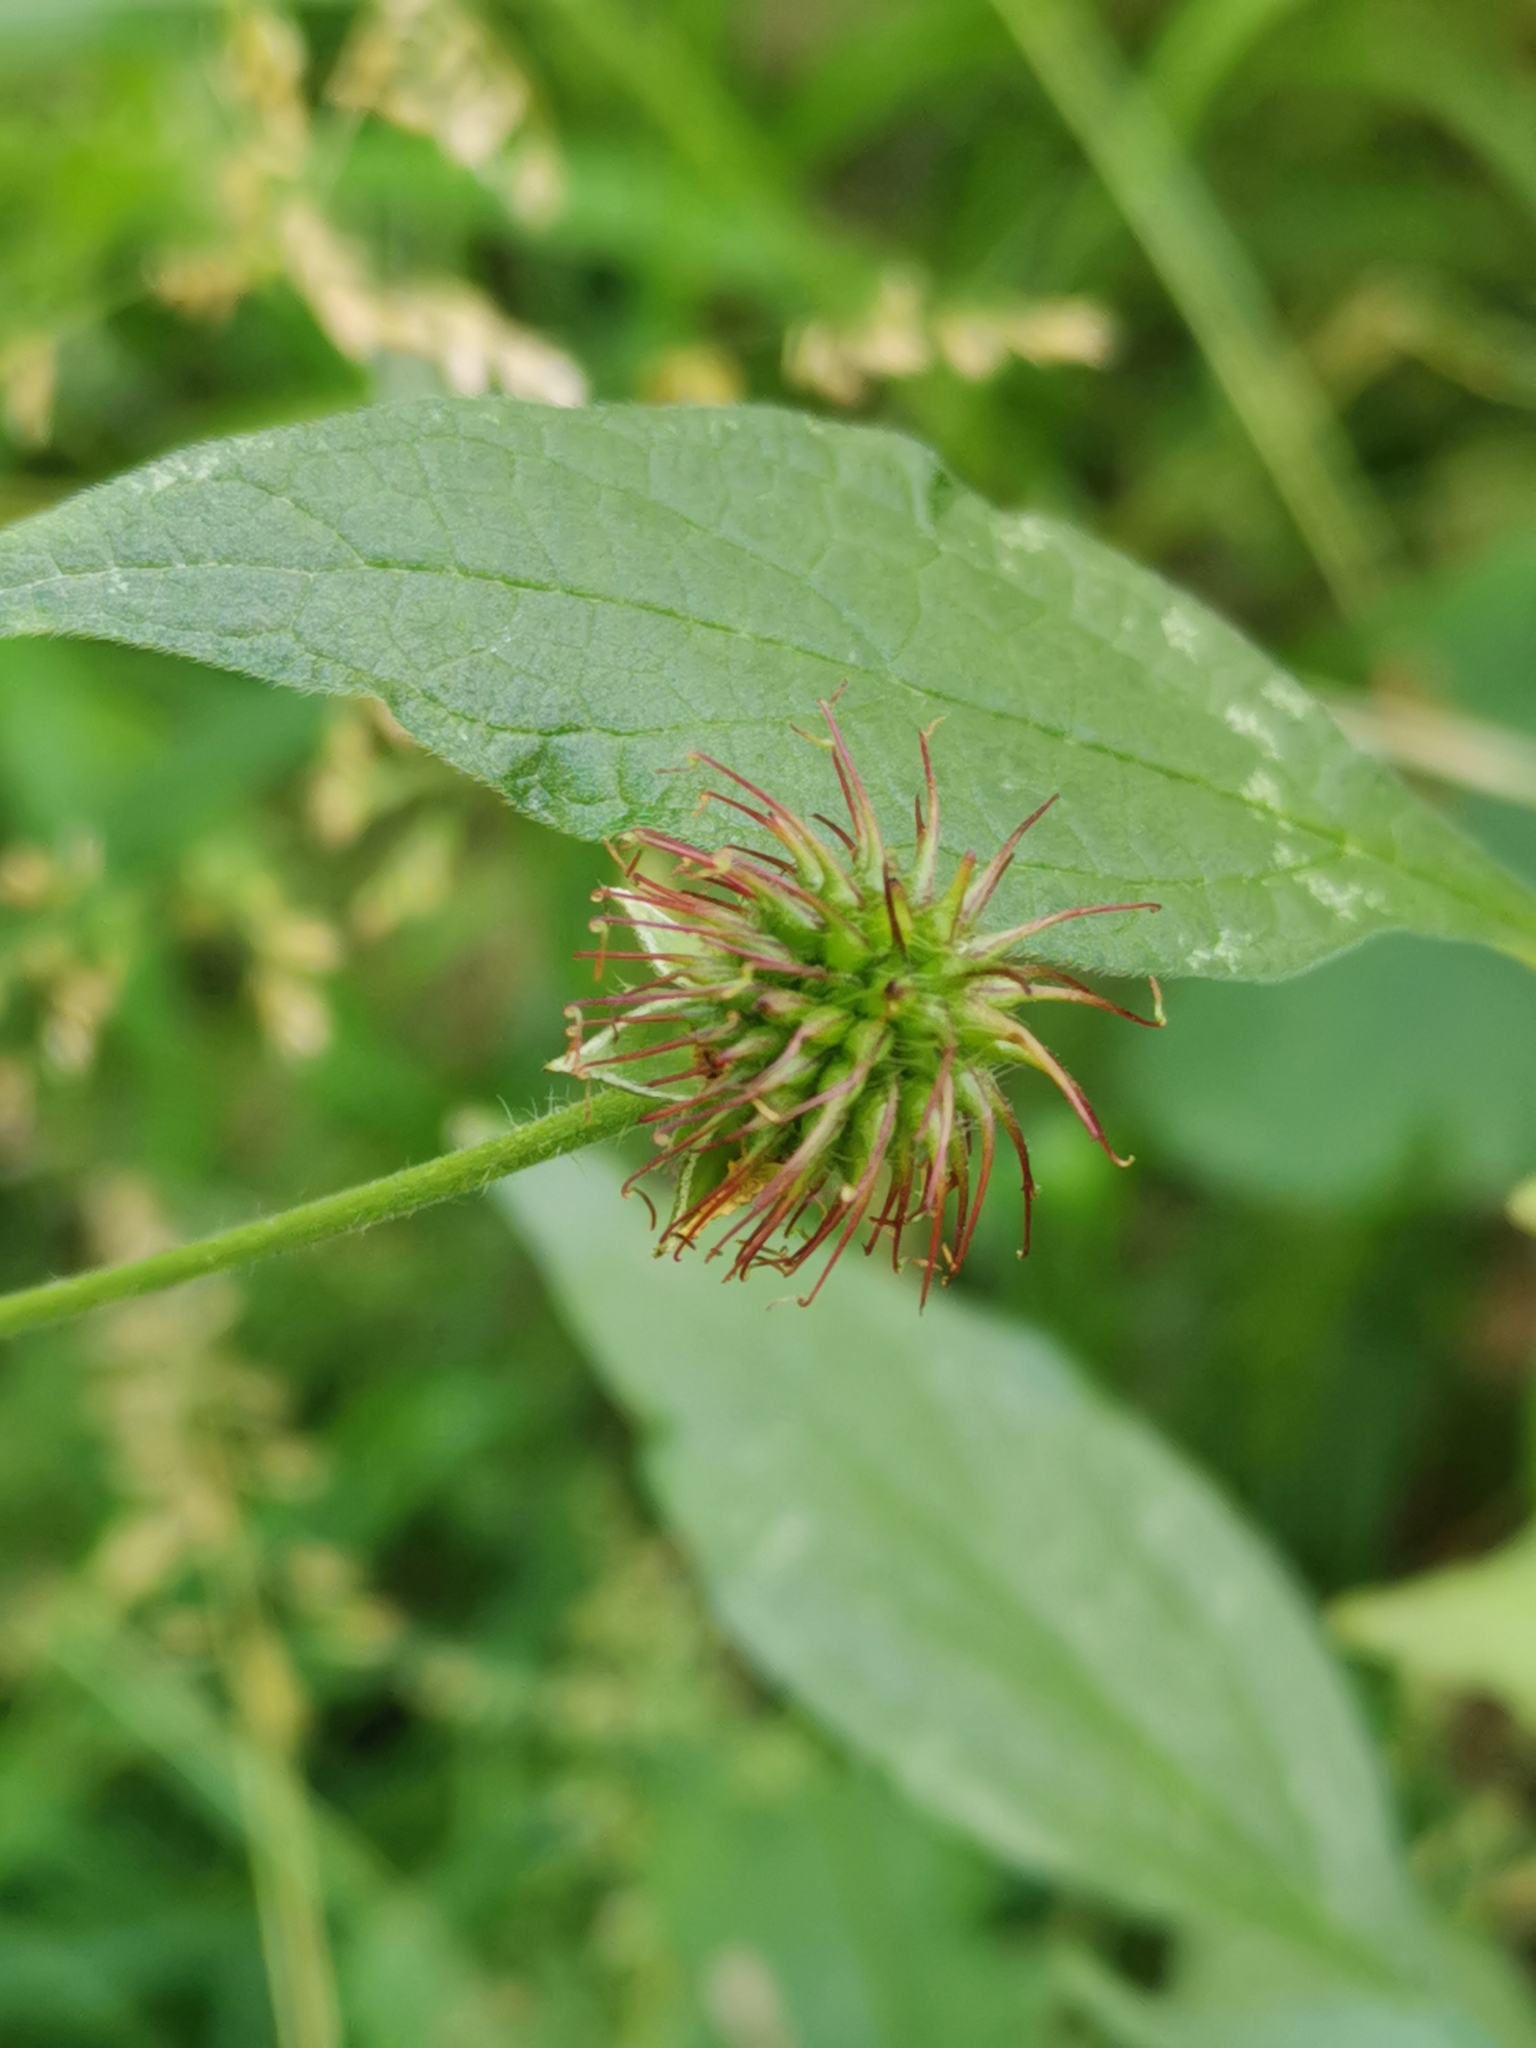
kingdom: Plantae
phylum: Tracheophyta
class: Magnoliopsida
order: Rosales
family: Rosaceae
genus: Geum
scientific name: Geum urbanum
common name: Wood avens
